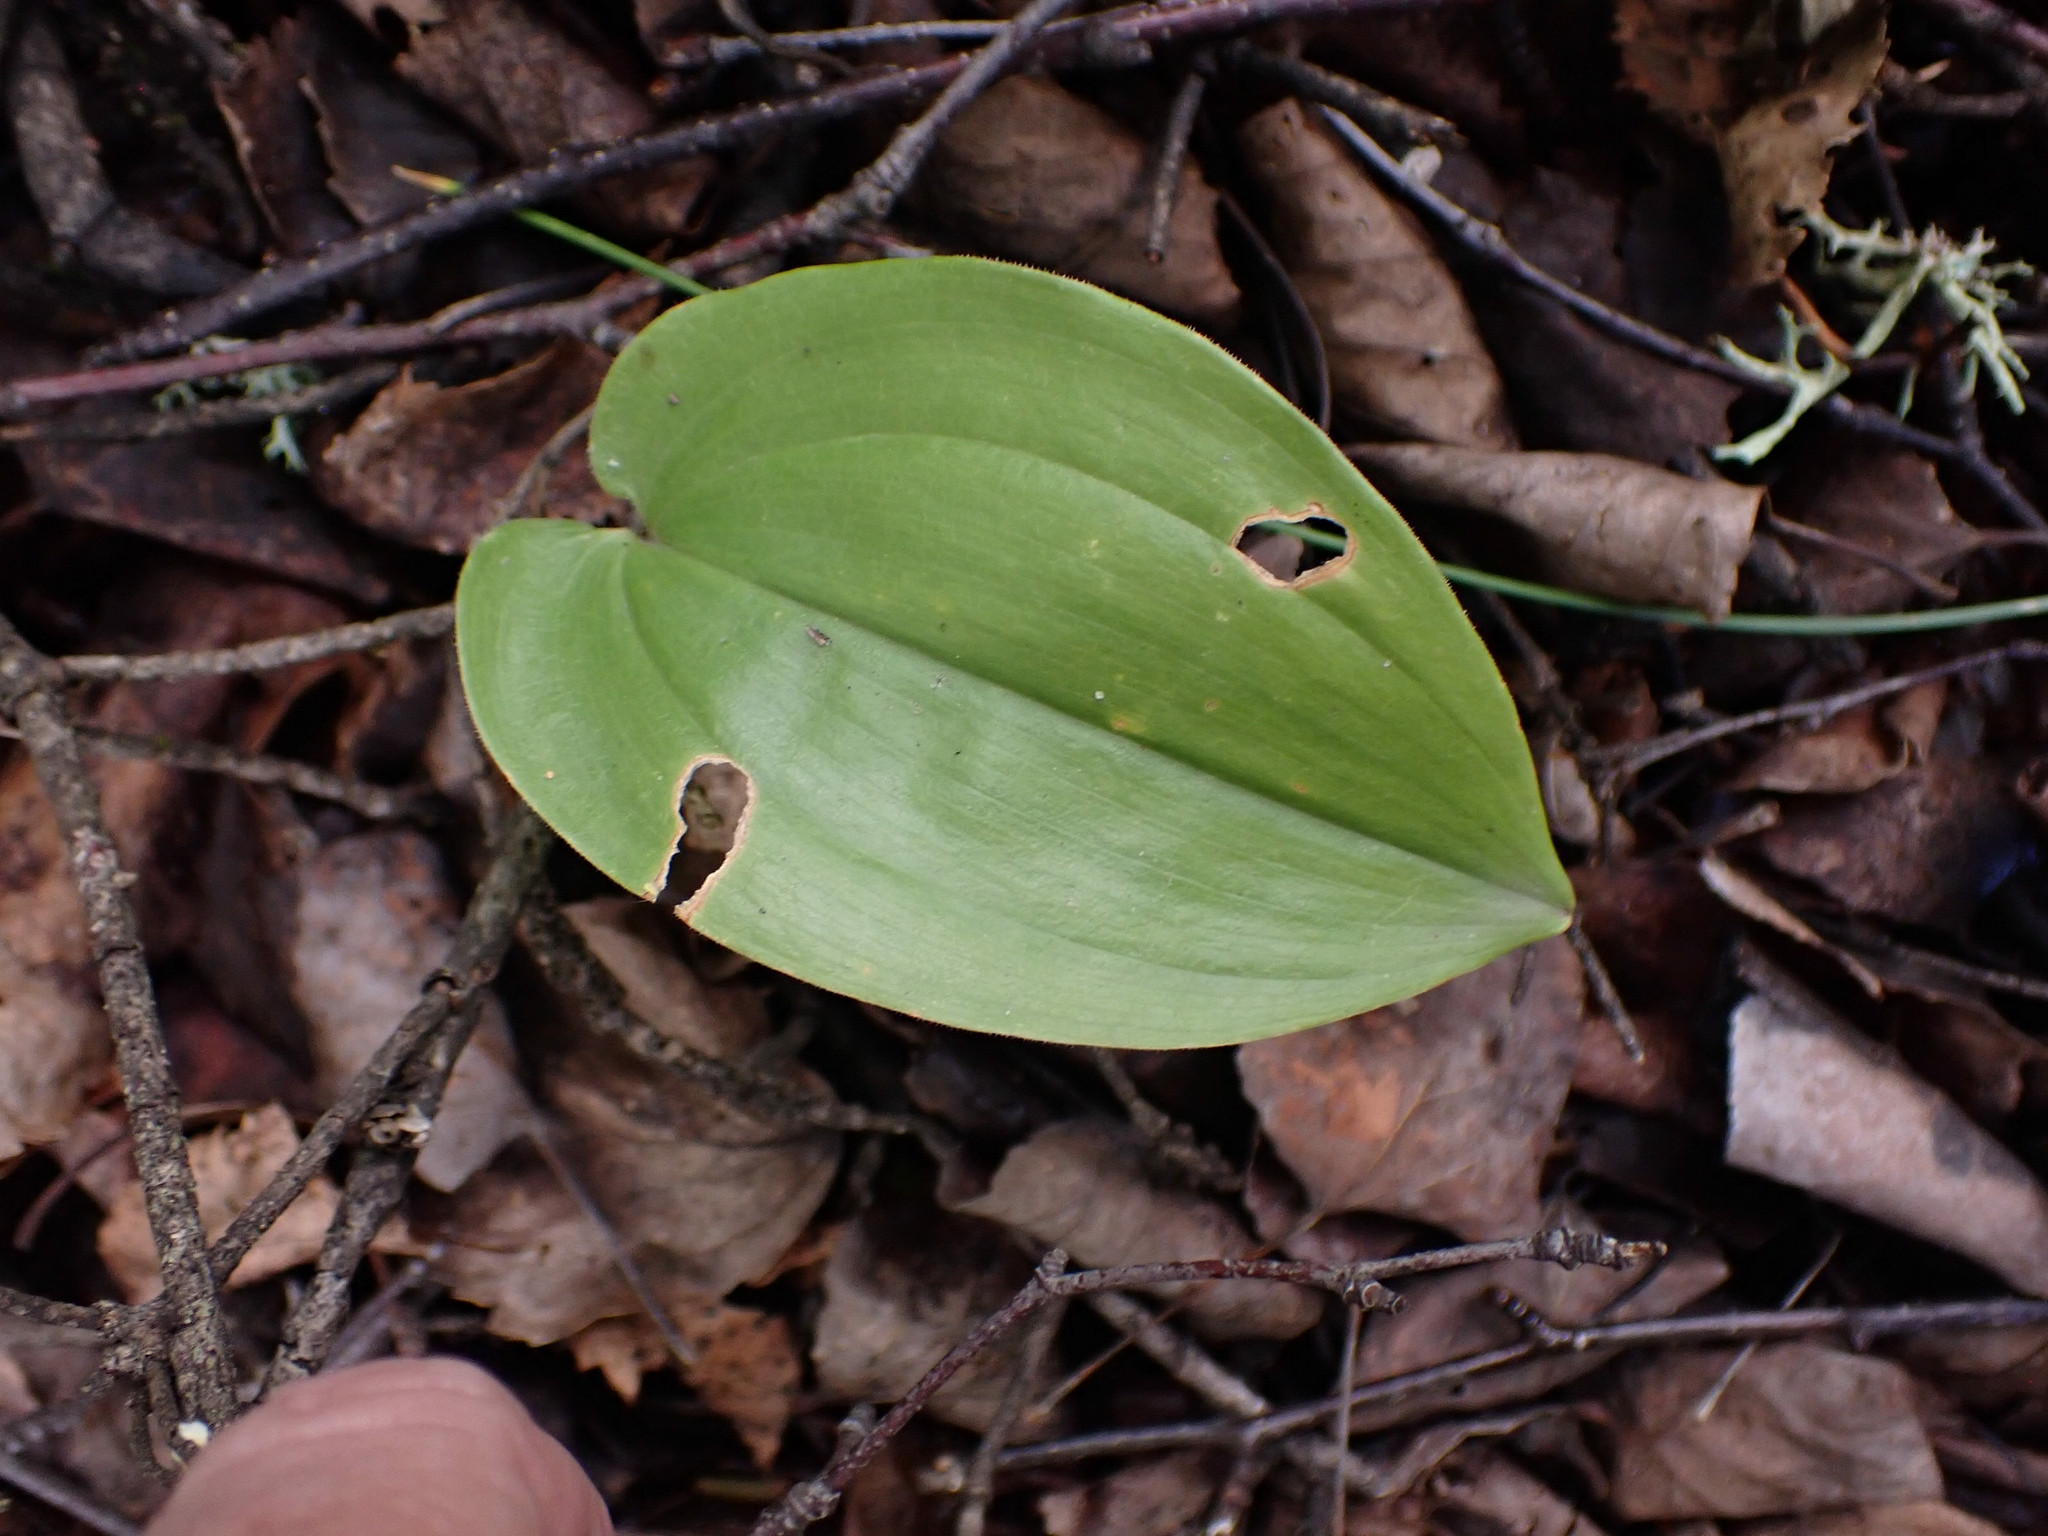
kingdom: Plantae
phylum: Tracheophyta
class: Liliopsida
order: Asparagales
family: Asparagaceae
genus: Maianthemum
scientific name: Maianthemum canadense
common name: False lily-of-the-valley
